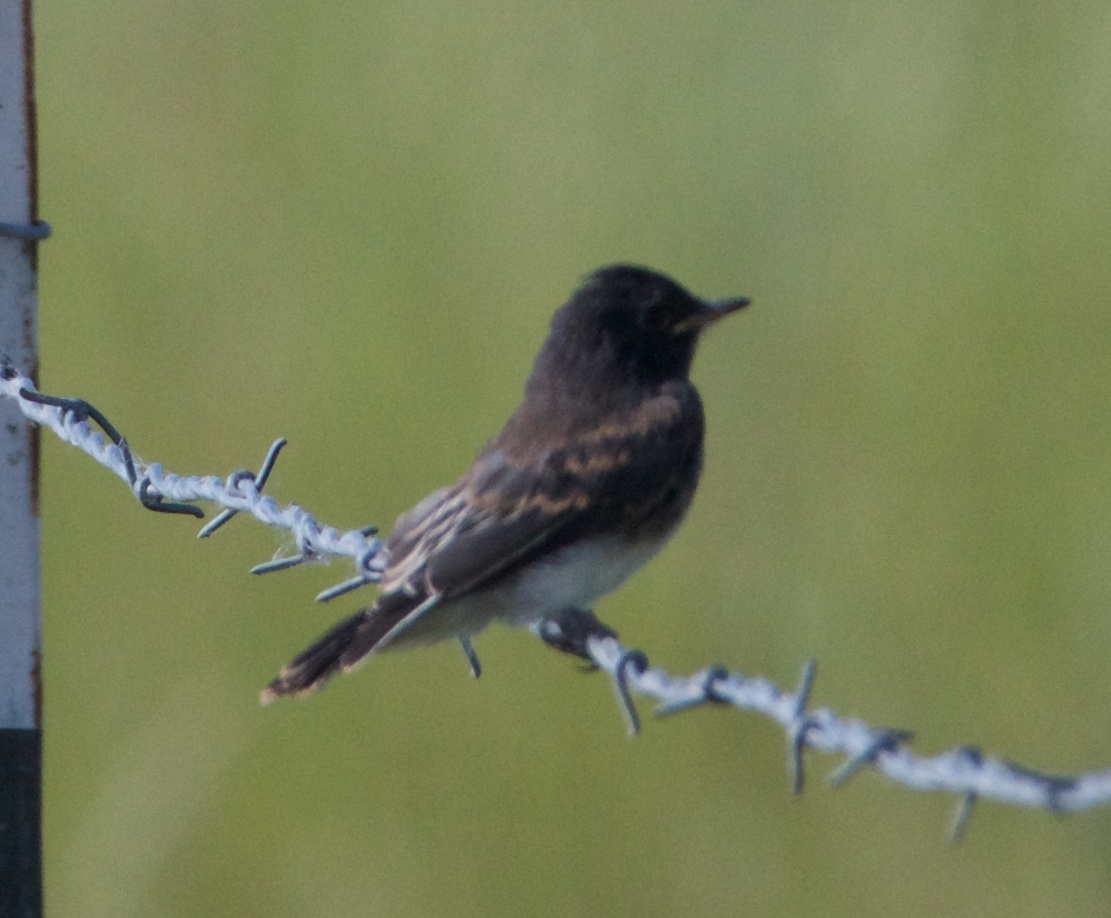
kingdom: Animalia
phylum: Chordata
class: Aves
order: Passeriformes
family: Tyrannidae
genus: Sayornis
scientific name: Sayornis nigricans
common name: Black phoebe
